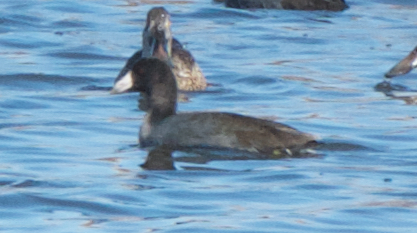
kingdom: Animalia
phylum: Chordata
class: Aves
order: Gruiformes
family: Rallidae
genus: Fulica
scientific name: Fulica americana
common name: American coot
